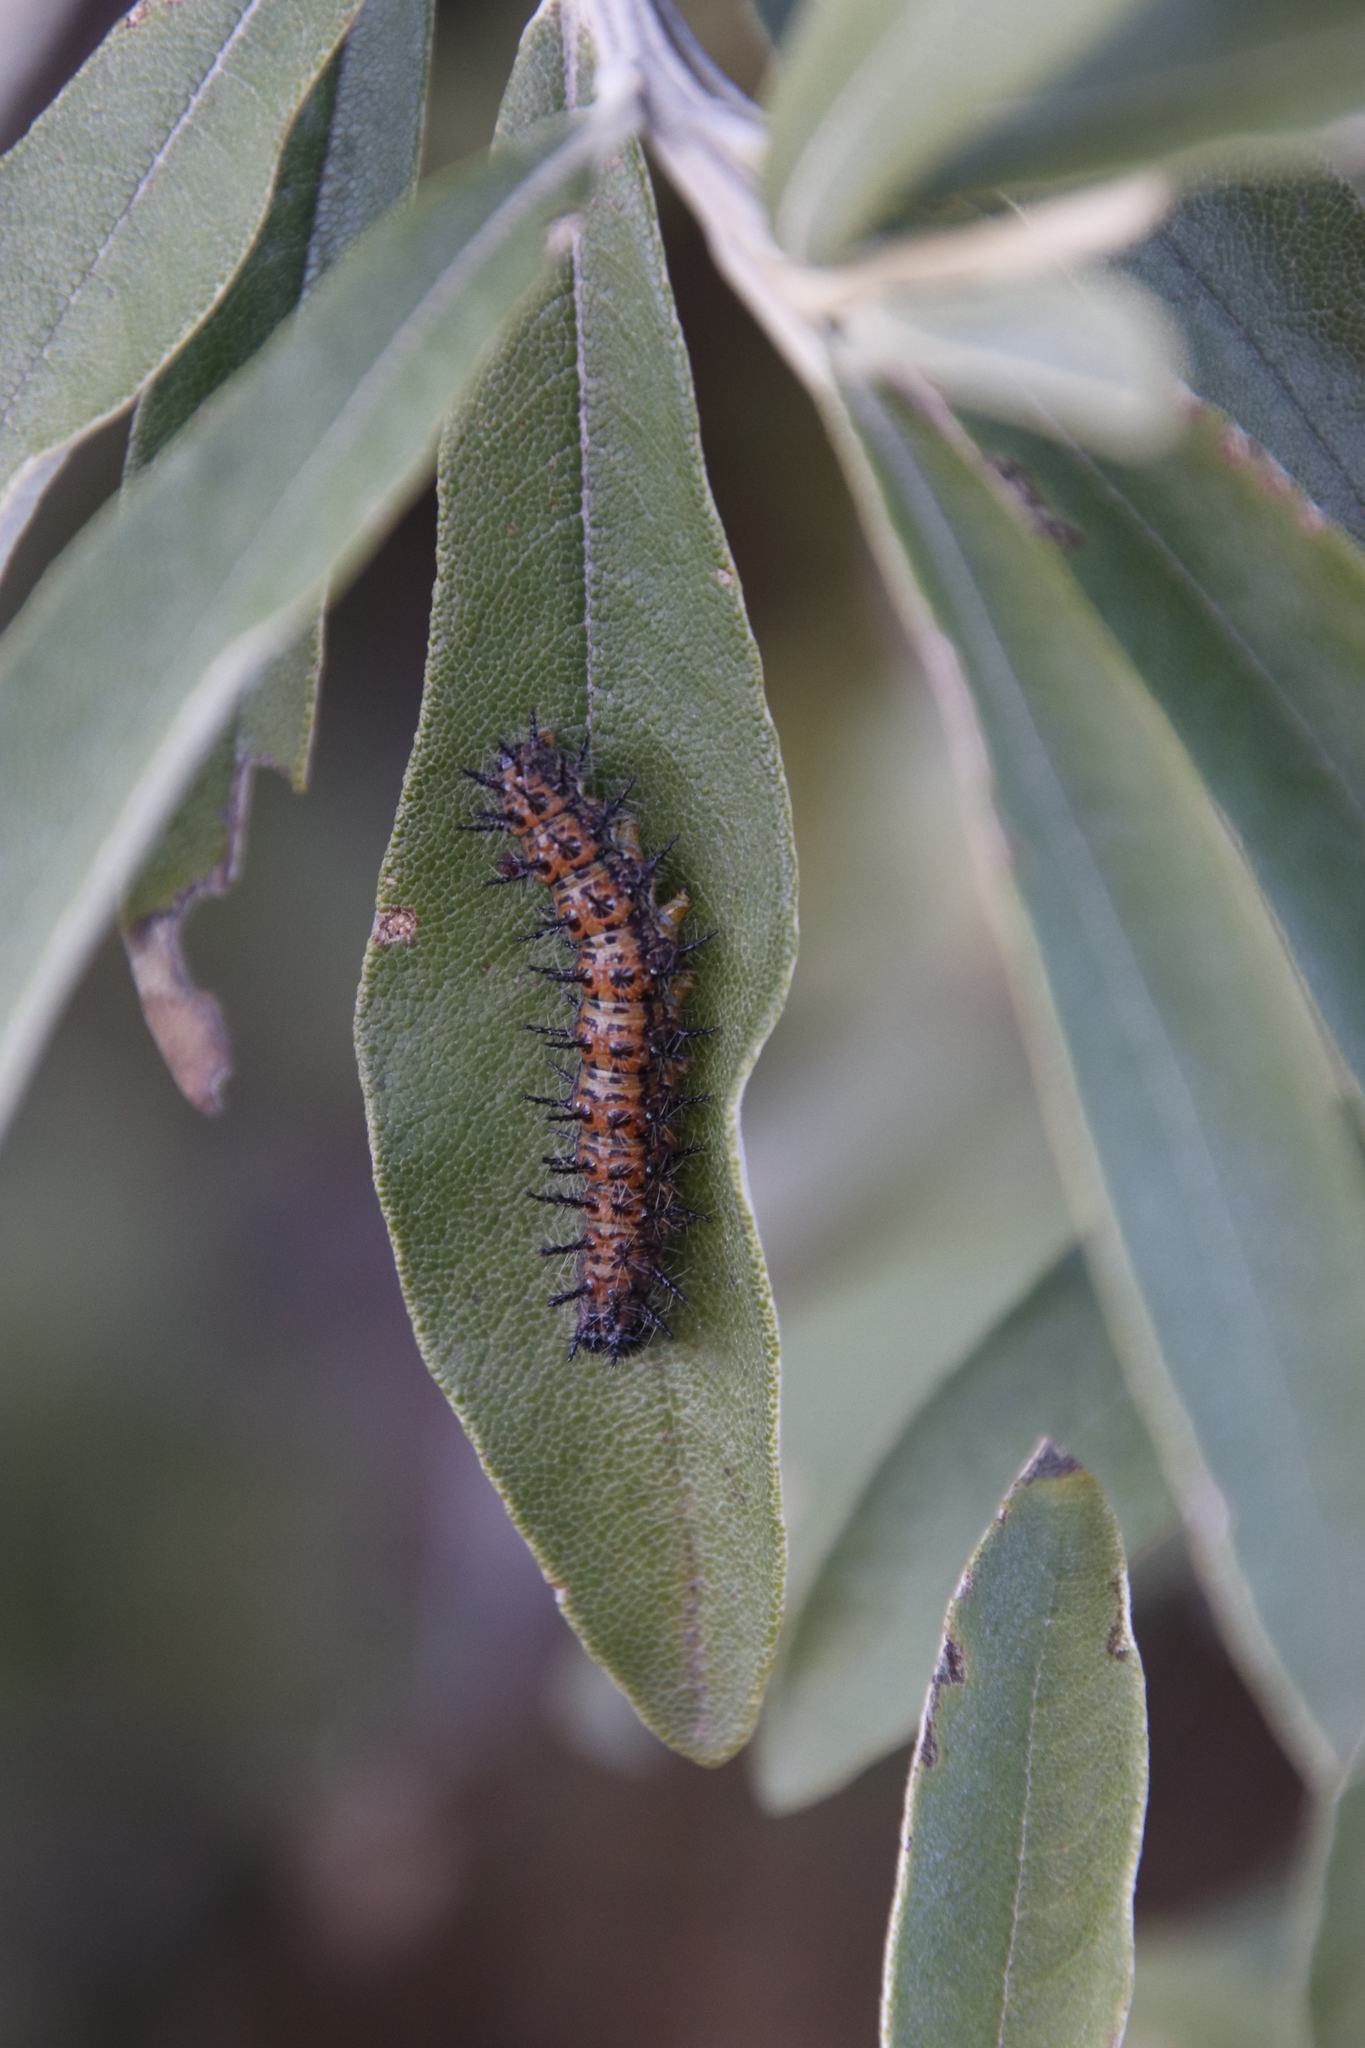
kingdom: Animalia
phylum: Arthropoda
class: Insecta
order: Lepidoptera
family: Nymphalidae
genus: Acraea
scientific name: Acraea horta
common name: Garden acraea
